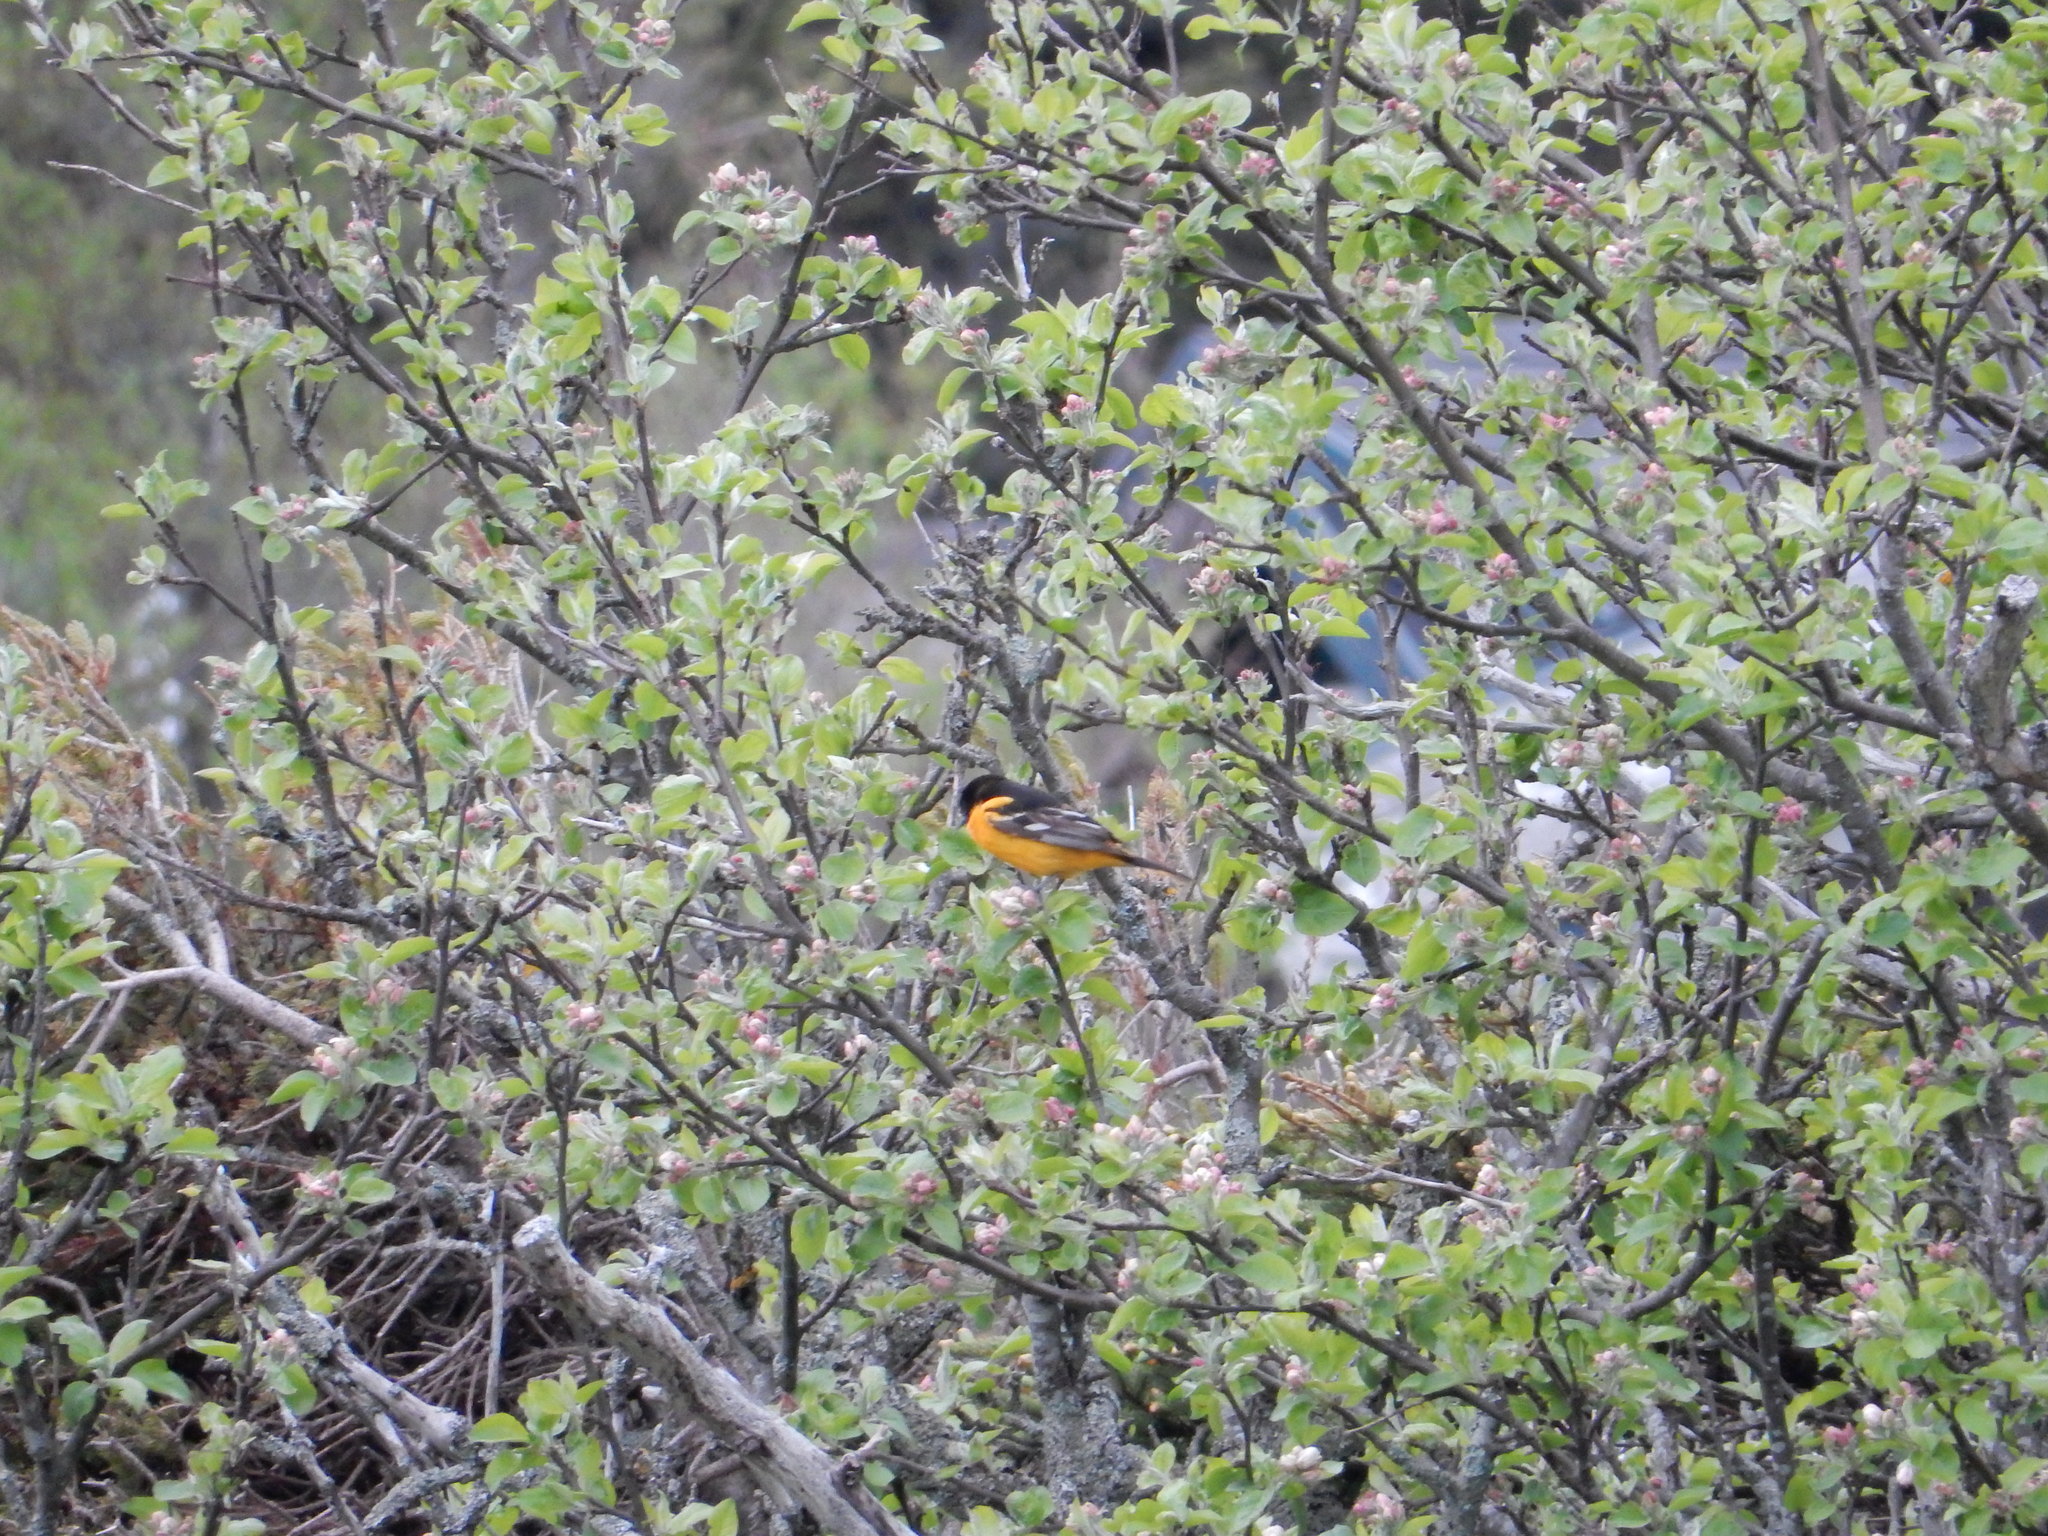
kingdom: Animalia
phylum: Chordata
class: Aves
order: Passeriformes
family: Icteridae
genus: Icterus
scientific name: Icterus galbula
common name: Baltimore oriole
